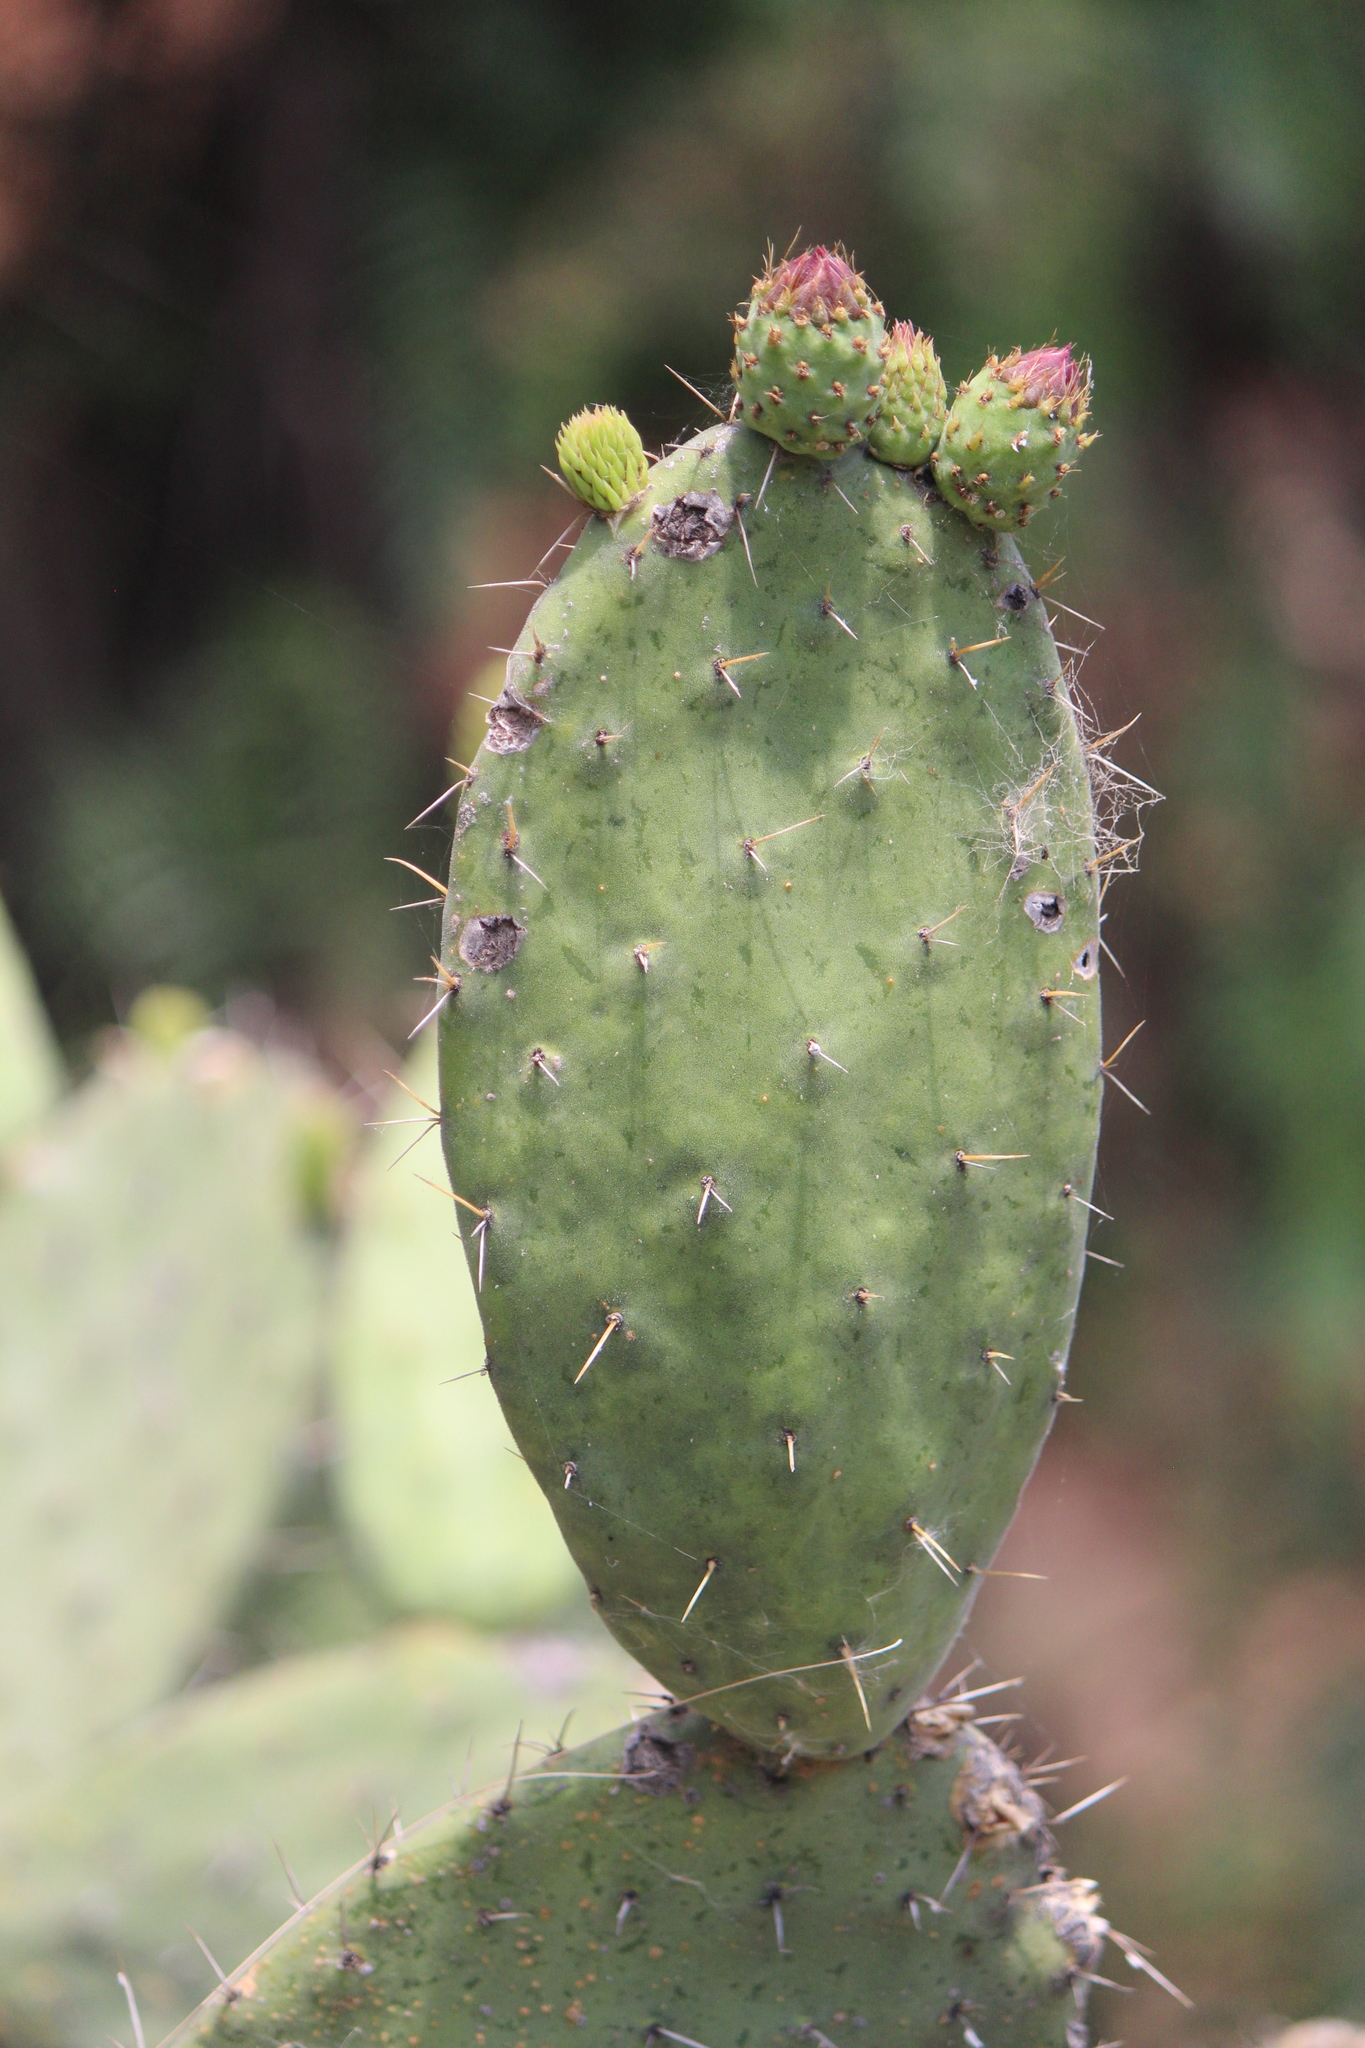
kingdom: Plantae
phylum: Tracheophyta
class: Magnoliopsida
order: Caryophyllales
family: Cactaceae
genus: Opuntia
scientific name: Opuntia tomentosa
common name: Woollyjoint pricklypear
